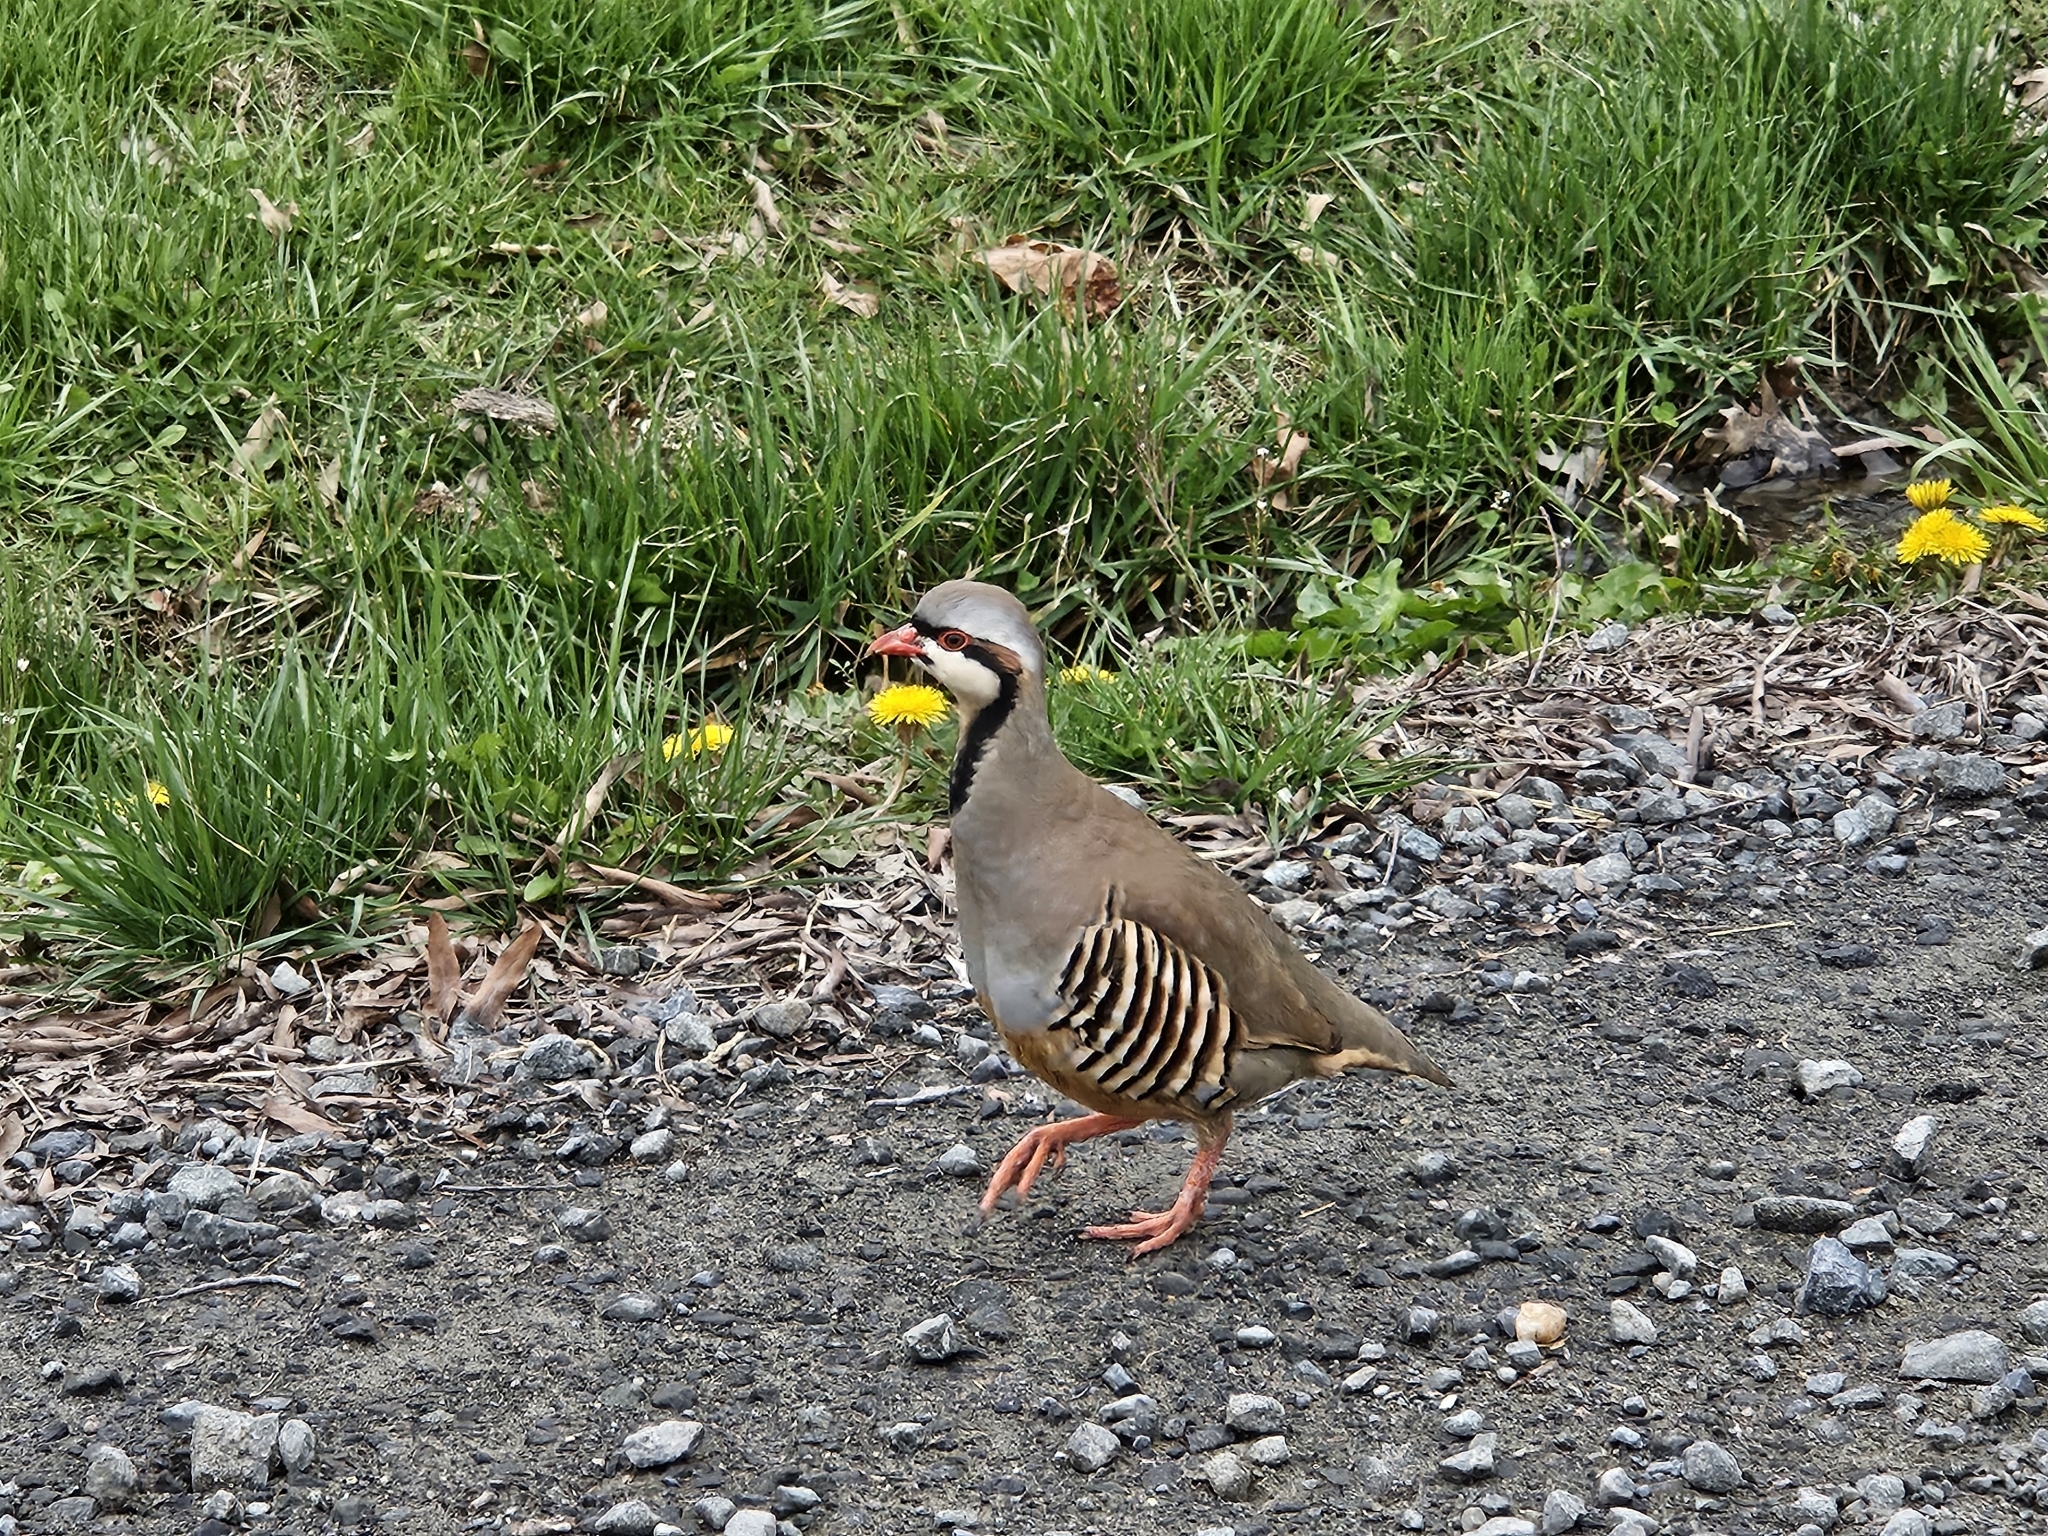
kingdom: Animalia
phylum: Chordata
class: Aves
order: Galliformes
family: Phasianidae
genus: Alectoris
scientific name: Alectoris chukar
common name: Chukar
